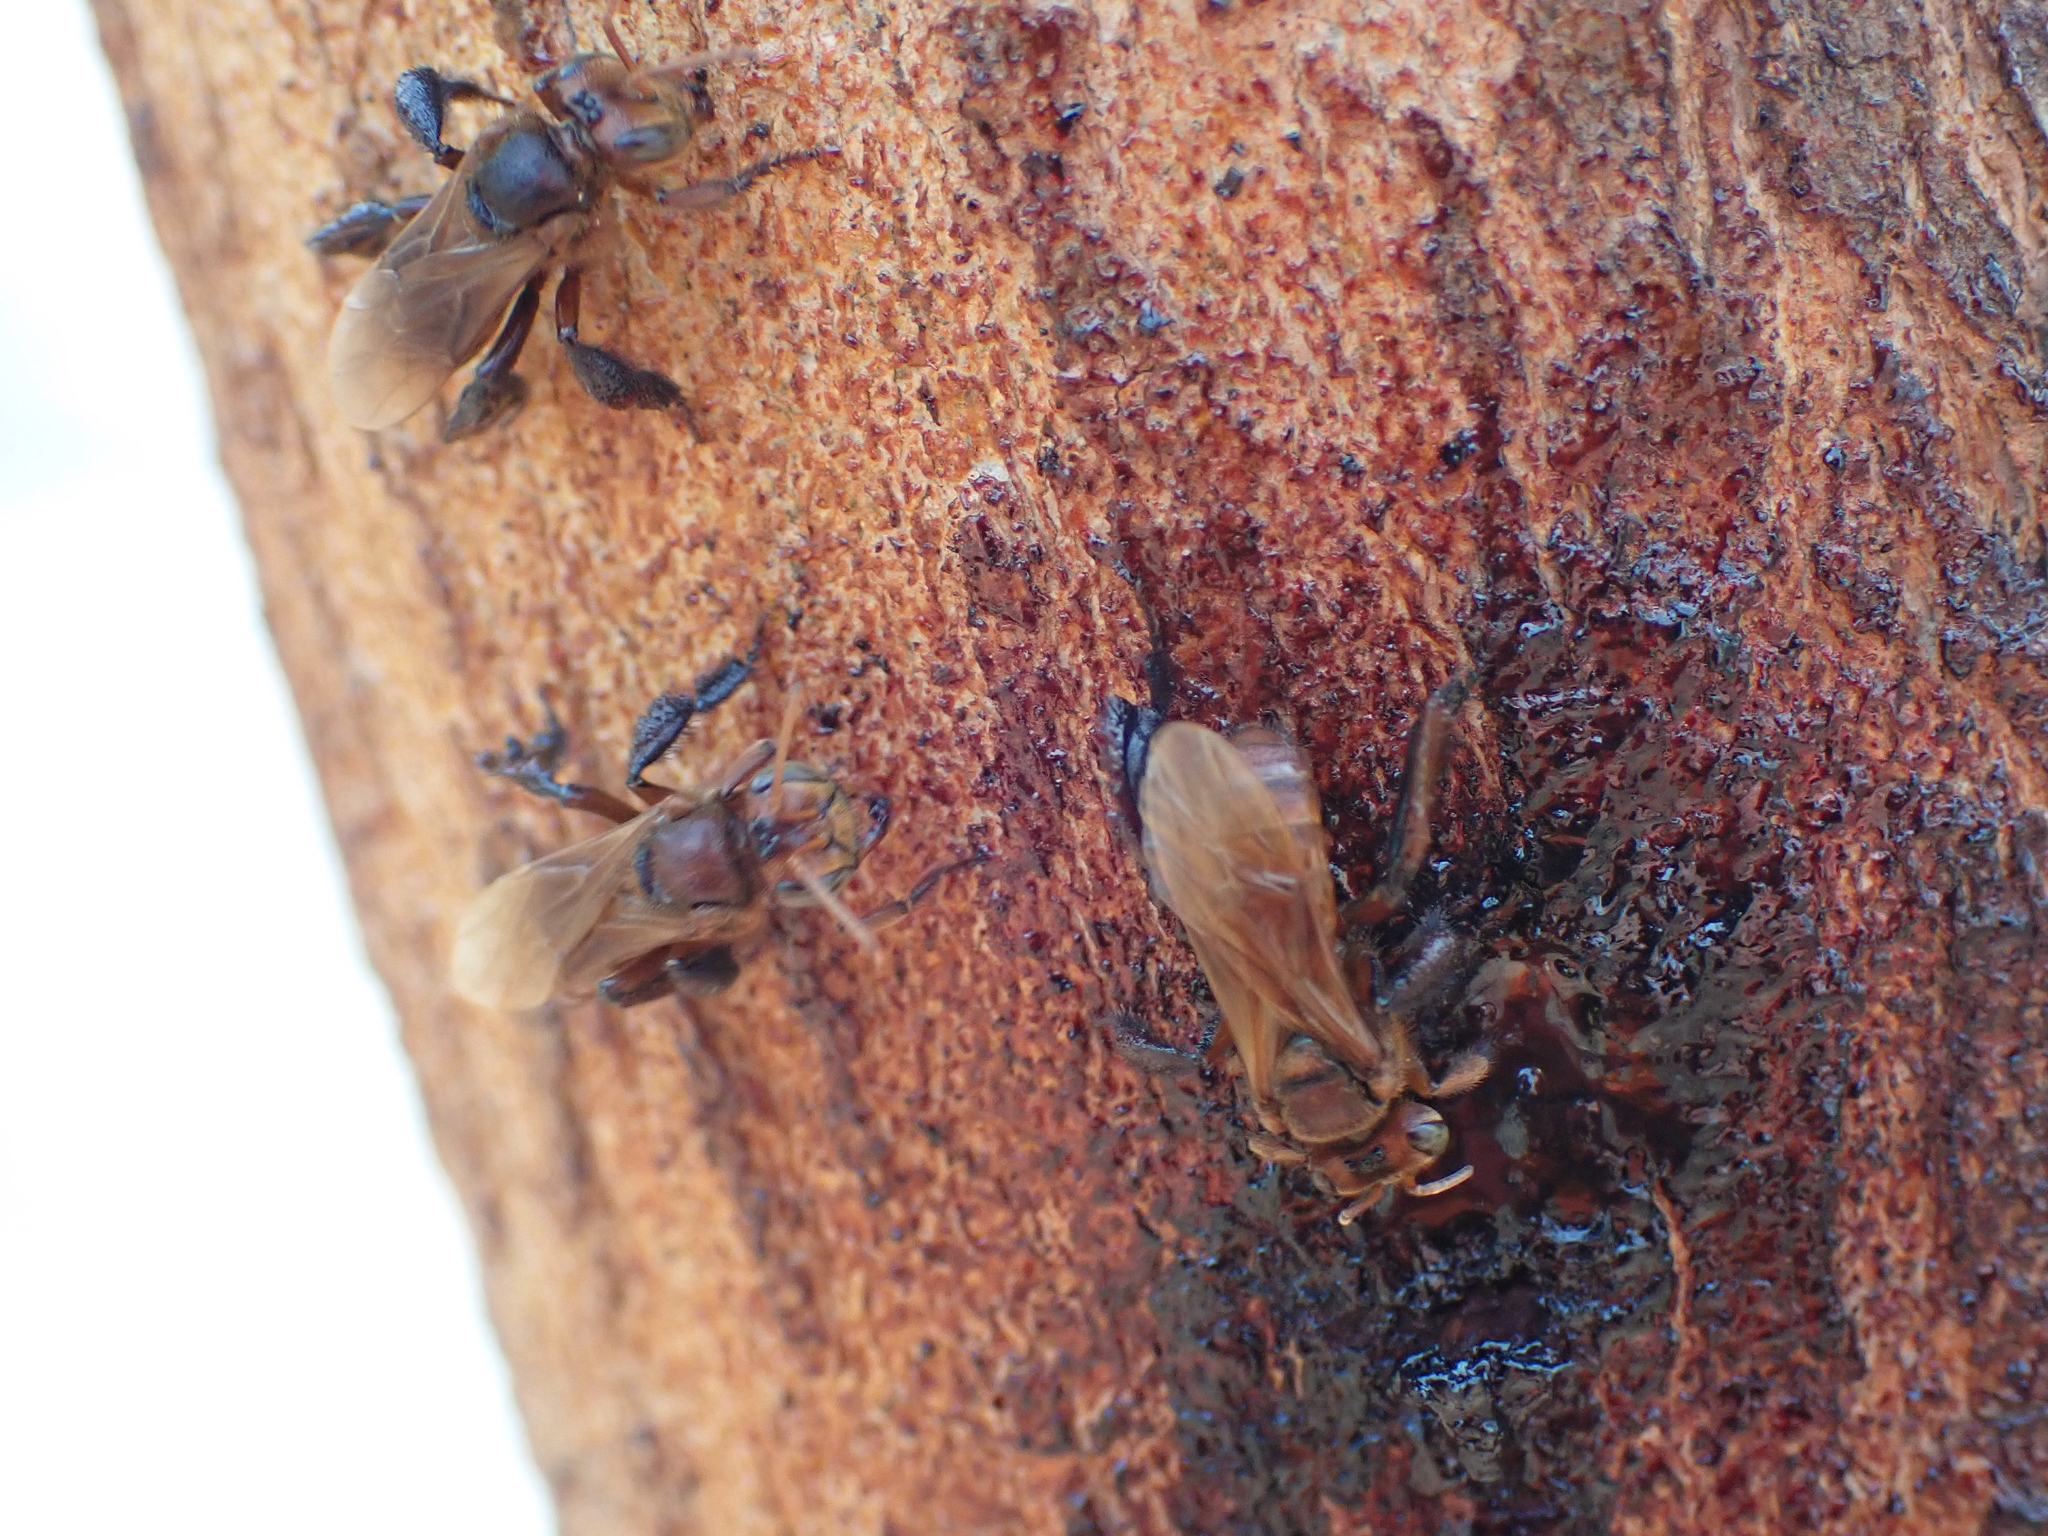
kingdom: Animalia
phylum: Arthropoda
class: Insecta
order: Hymenoptera
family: Apidae
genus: Homotrigona
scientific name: Homotrigona fimbriata
